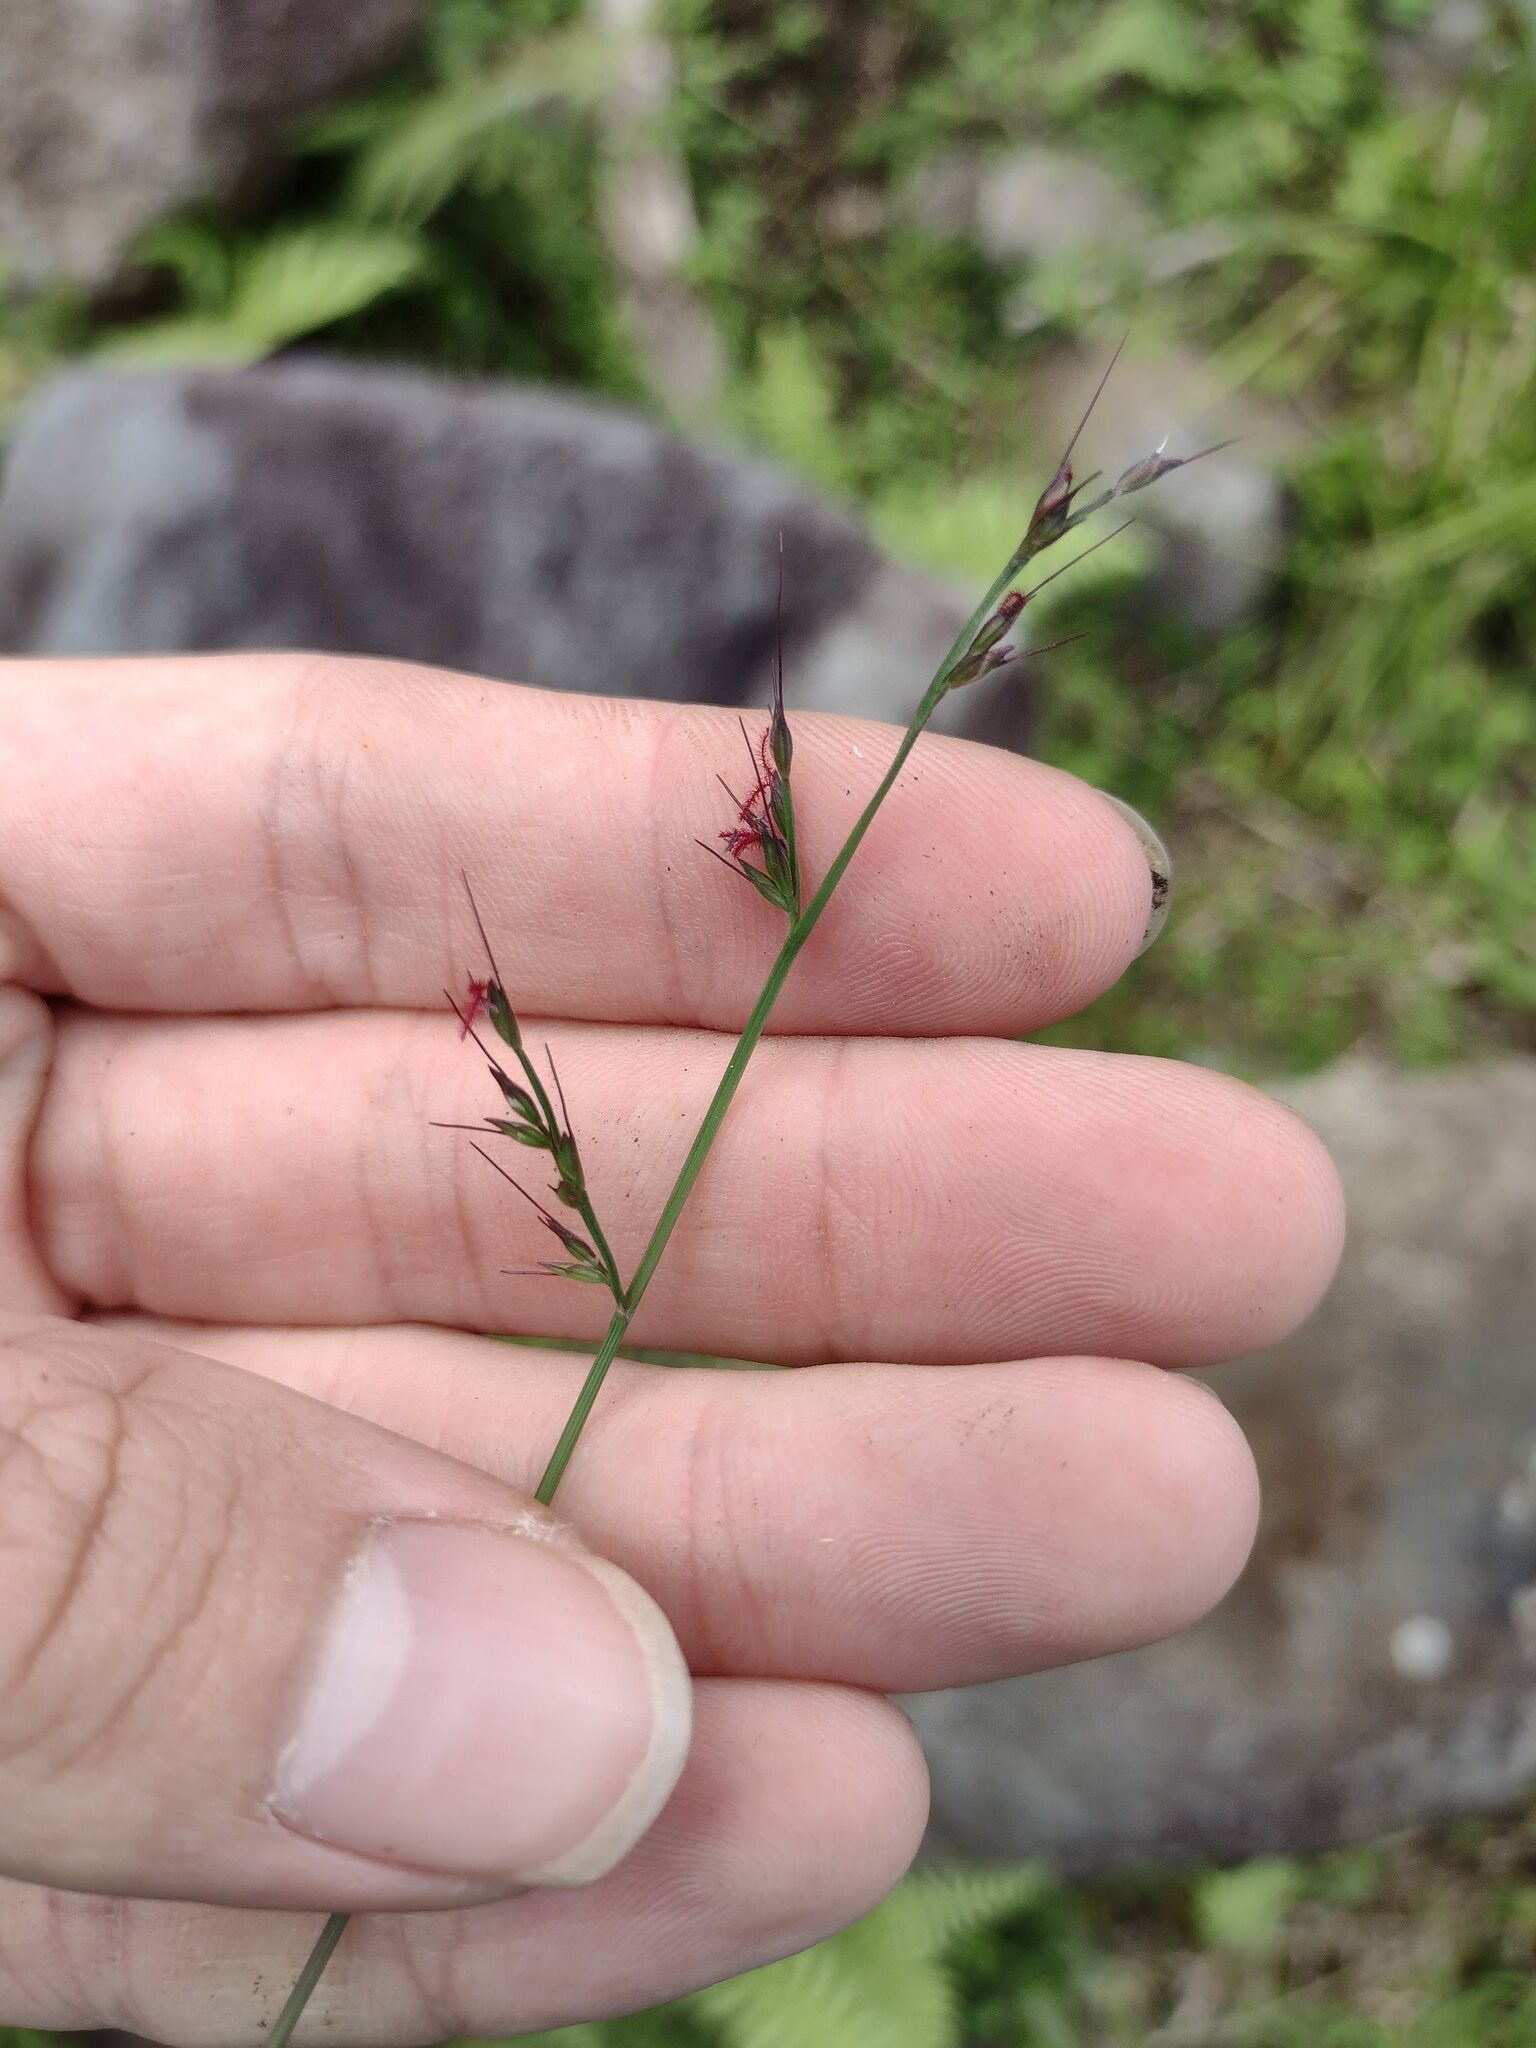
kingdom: Plantae
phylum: Tracheophyta
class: Liliopsida
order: Poales
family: Poaceae
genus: Oplismenus
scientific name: Oplismenus hirtellus
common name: Basketgrass
